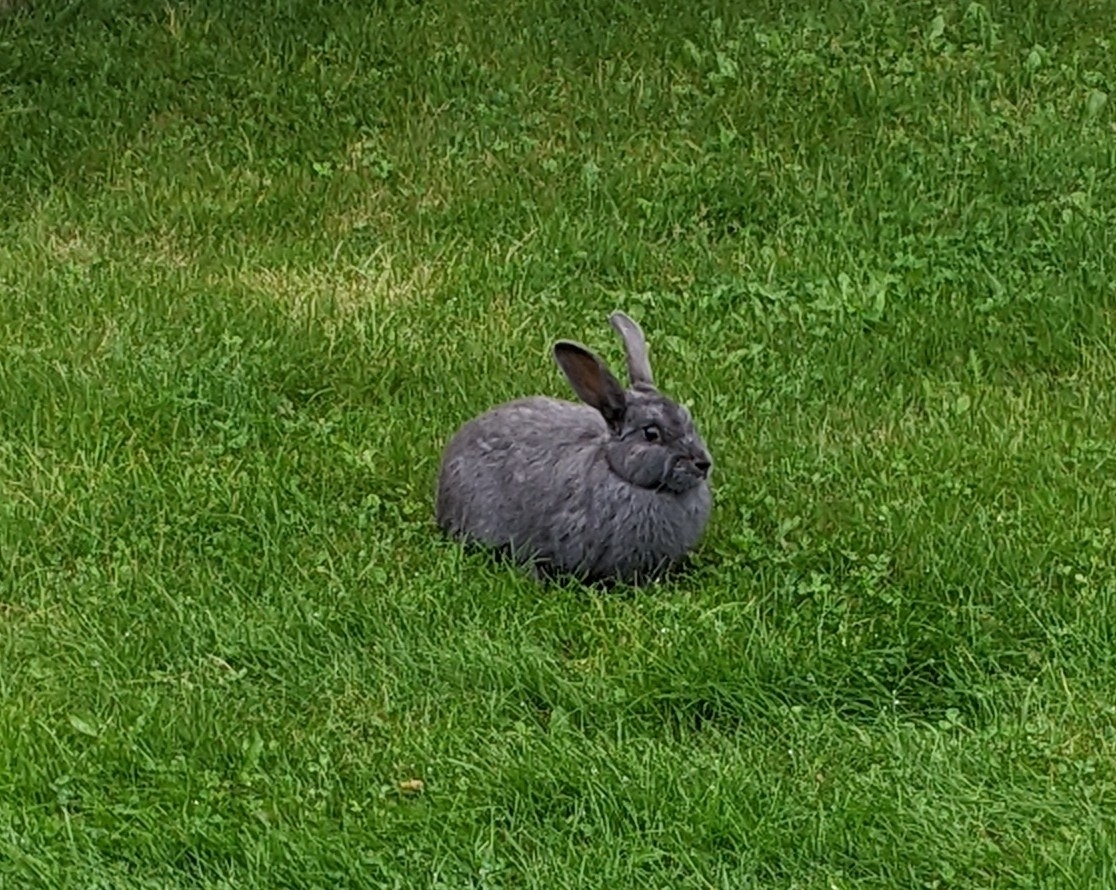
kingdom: Animalia
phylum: Chordata
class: Mammalia
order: Lagomorpha
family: Leporidae
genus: Oryctolagus
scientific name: Oryctolagus cuniculus
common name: European rabbit
